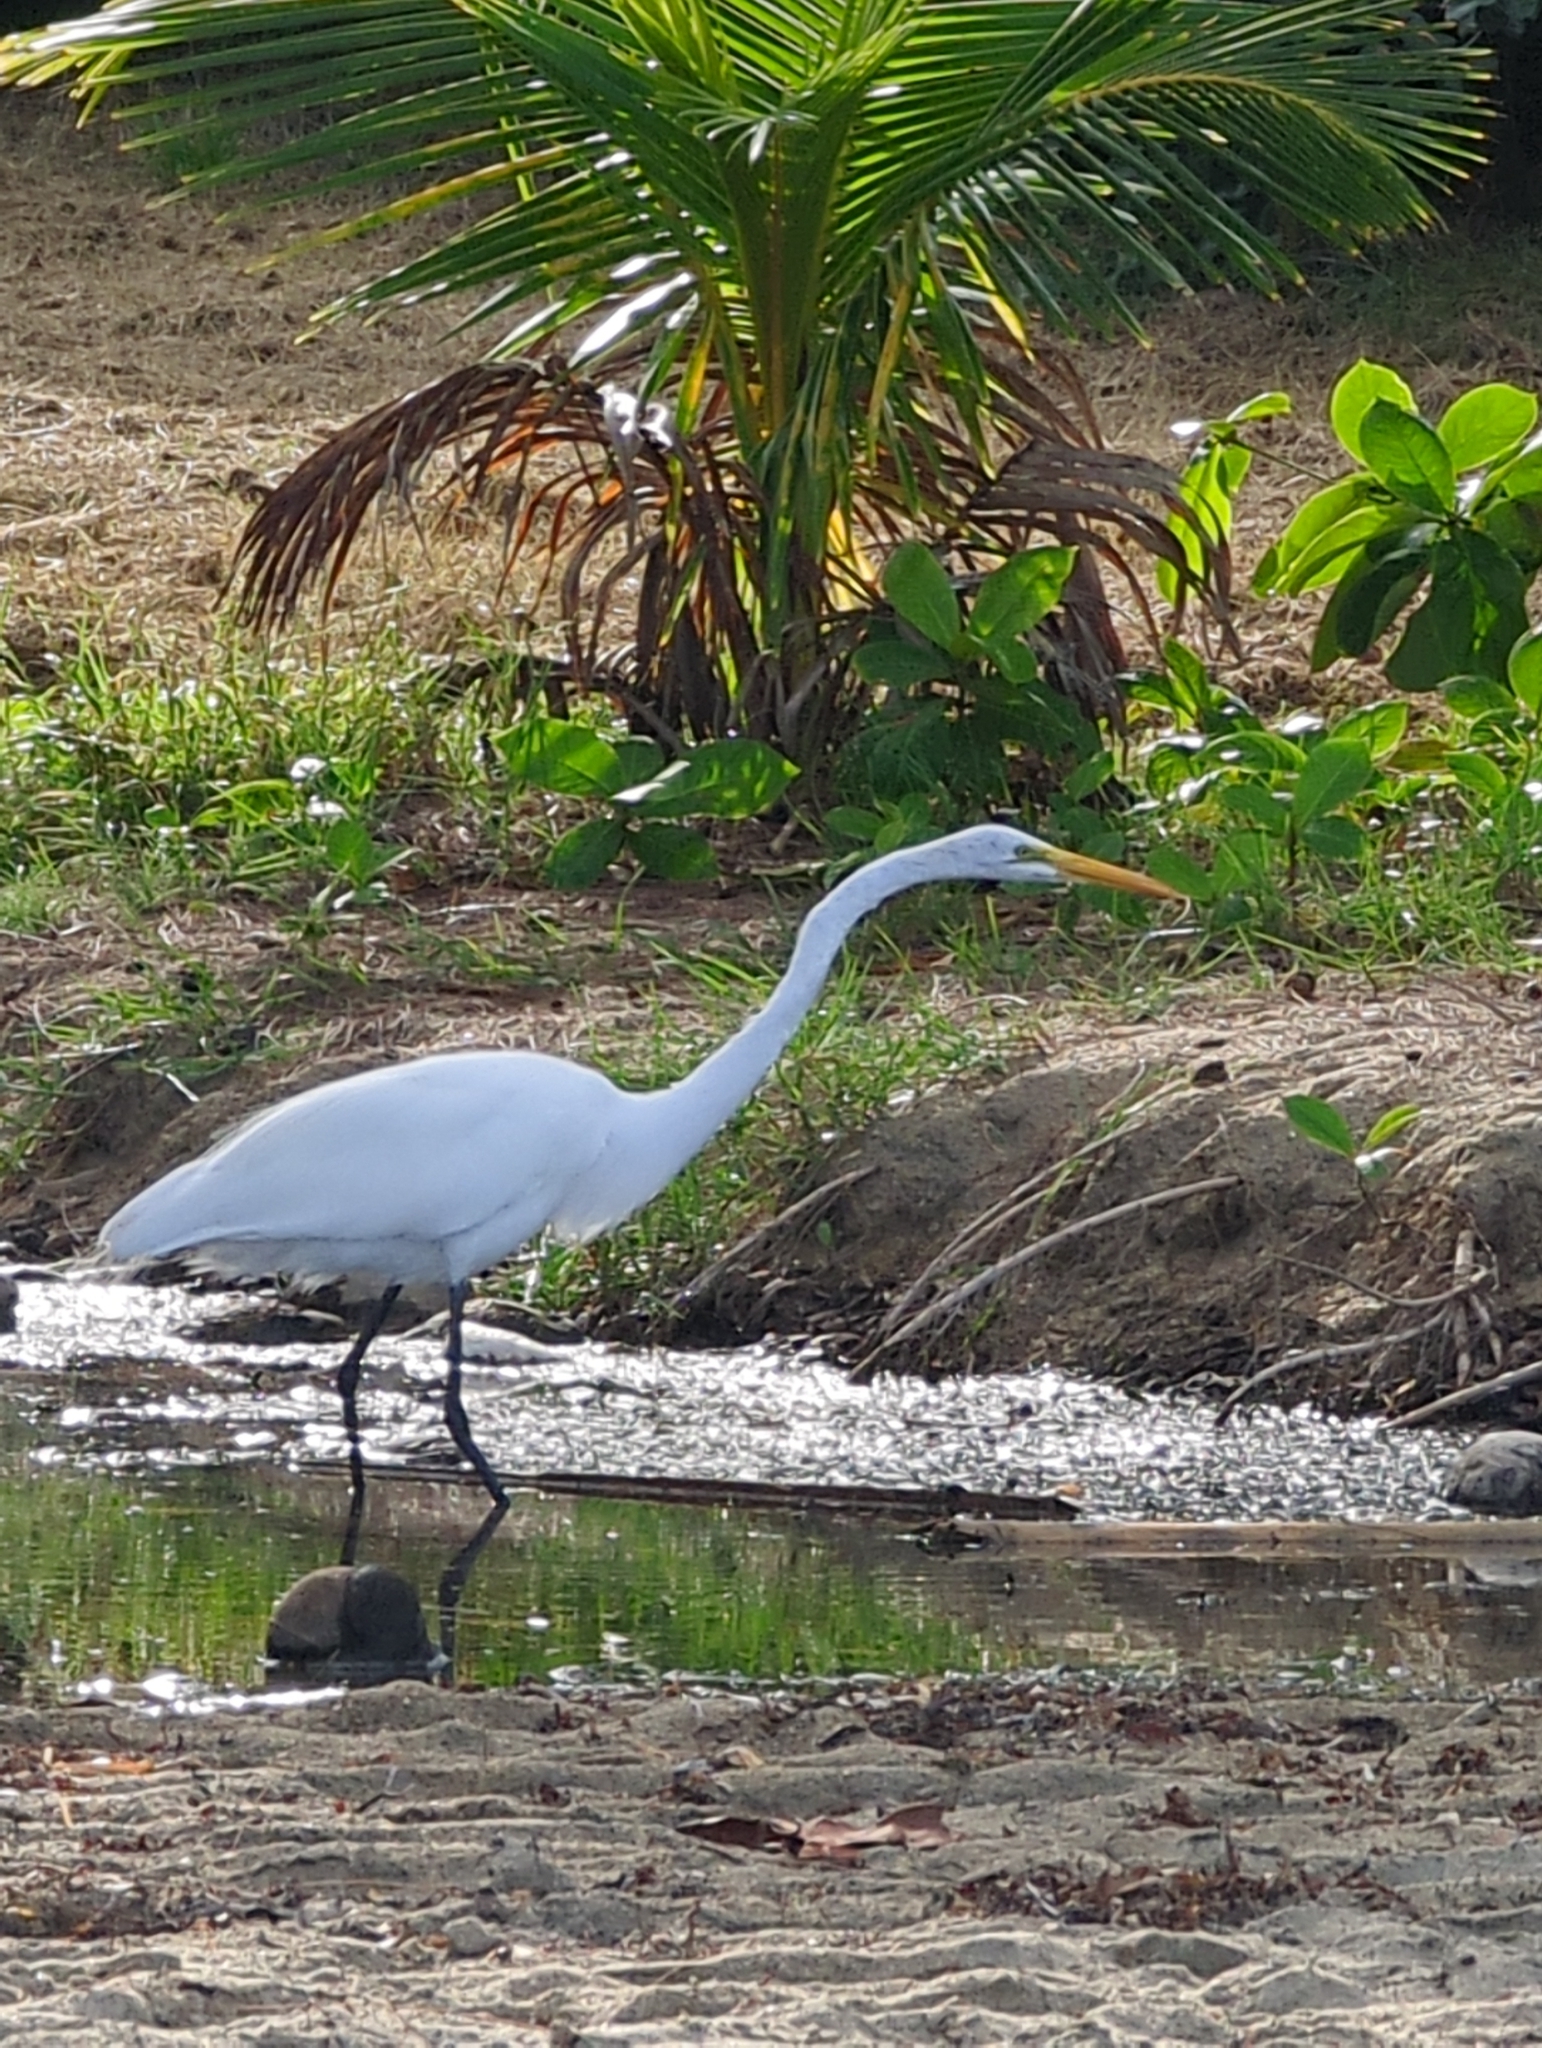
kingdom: Animalia
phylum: Chordata
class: Aves
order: Pelecaniformes
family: Ardeidae
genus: Ardea
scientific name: Ardea alba
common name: Great egret
